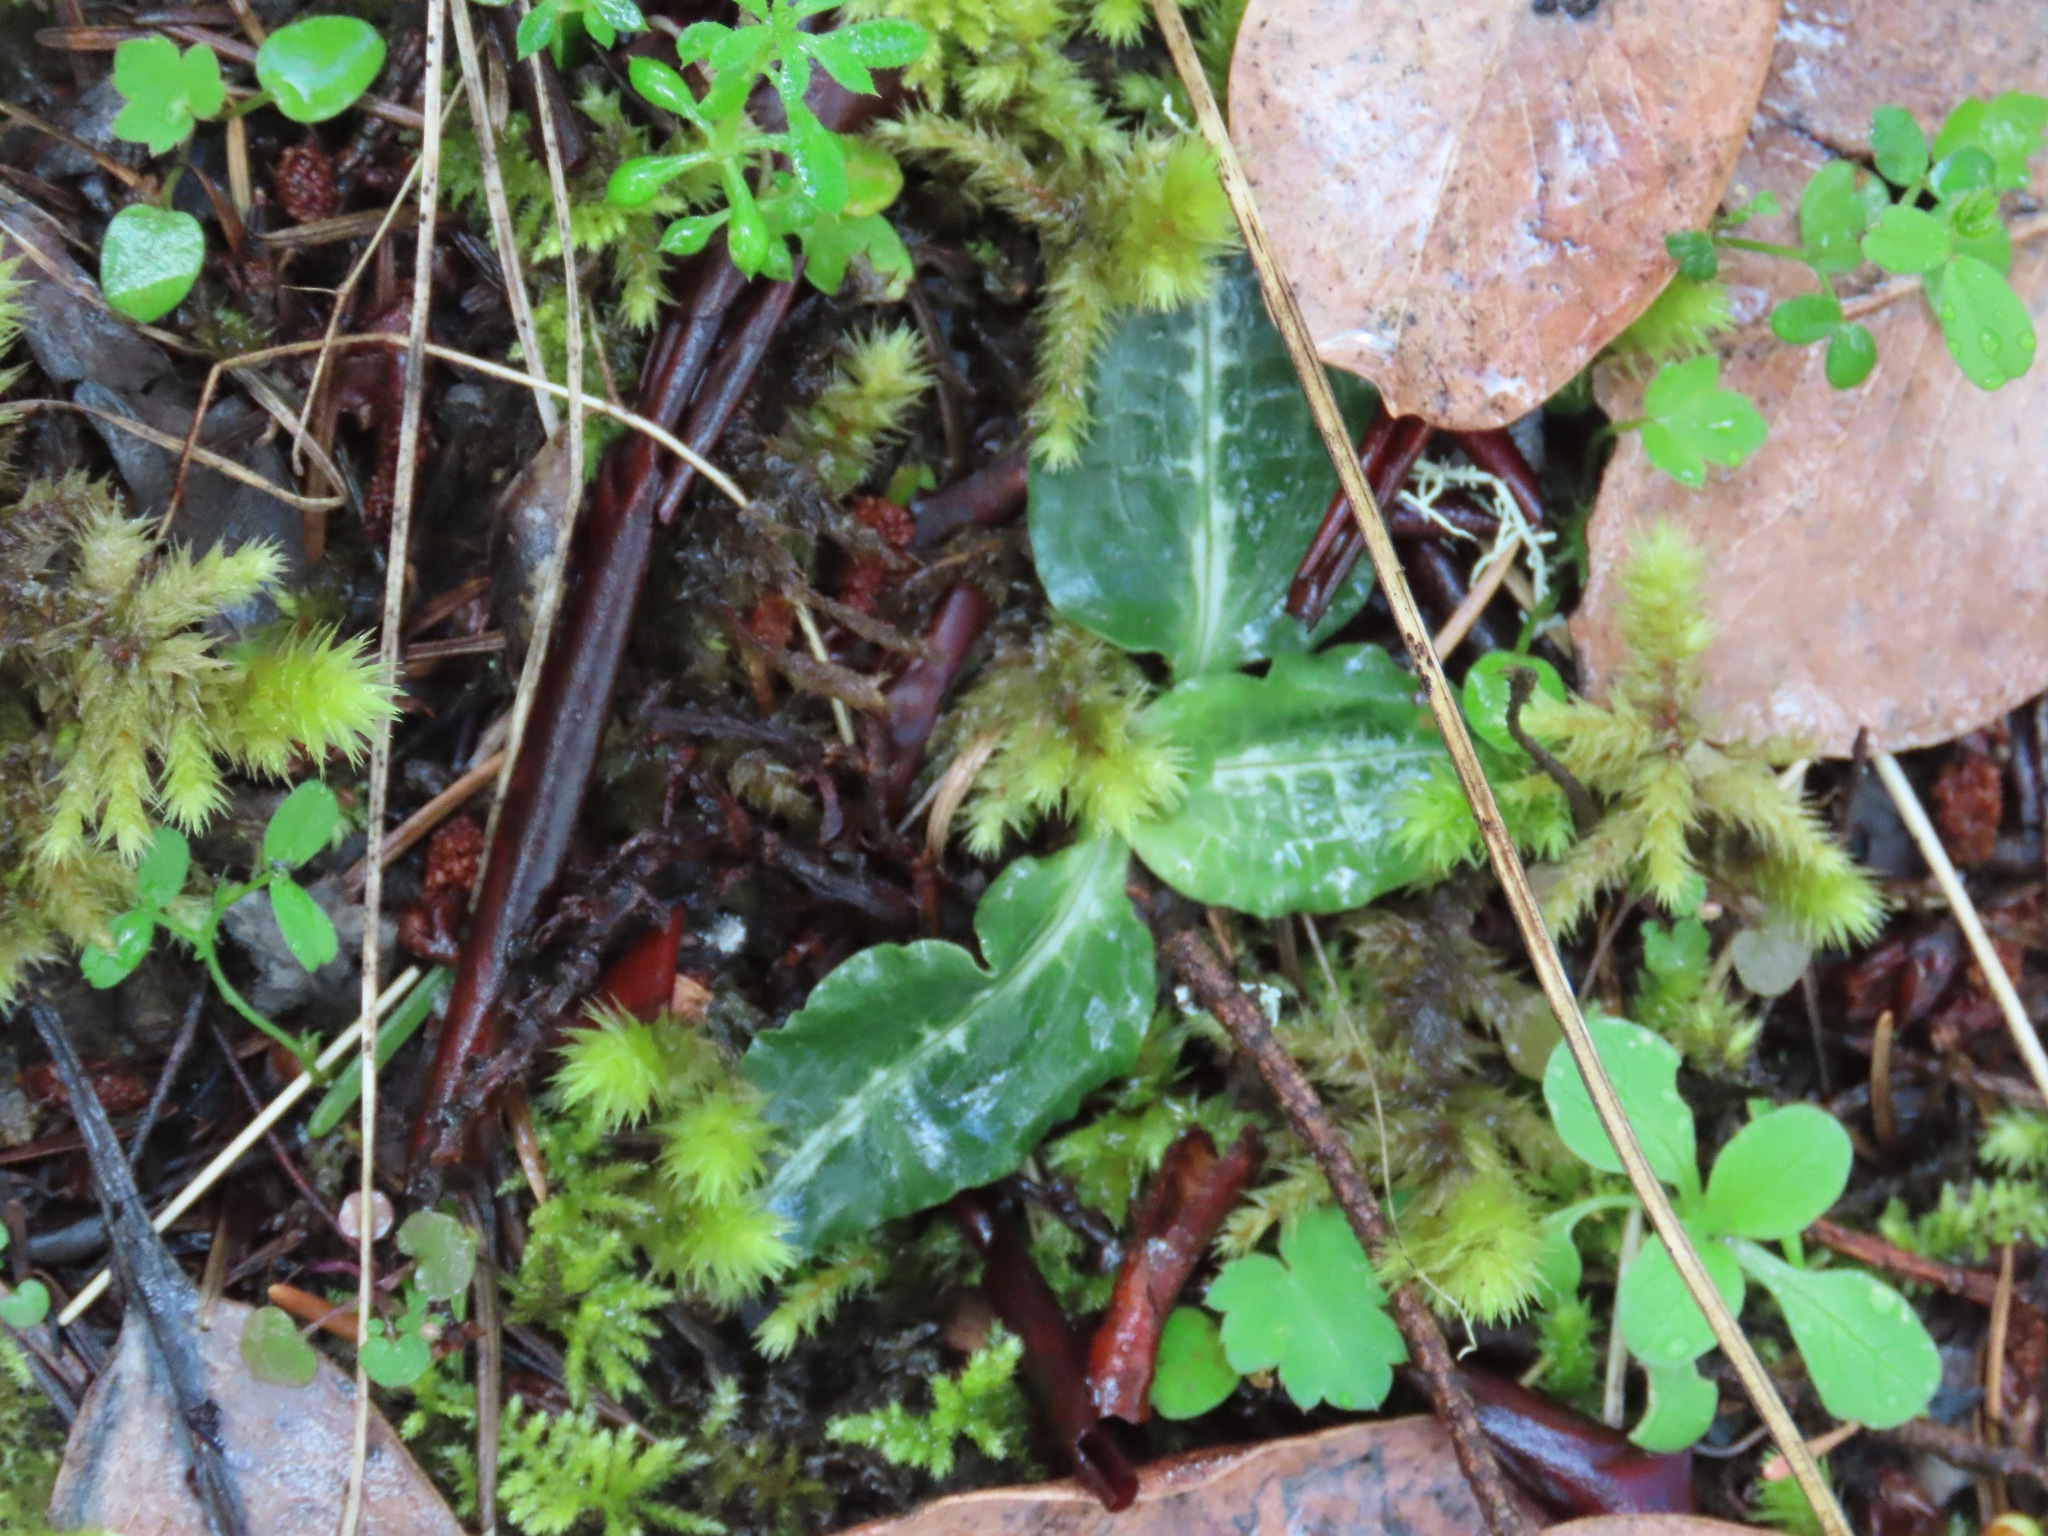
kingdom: Plantae
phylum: Tracheophyta
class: Liliopsida
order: Asparagales
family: Orchidaceae
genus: Goodyera
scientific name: Goodyera oblongifolia
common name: Giant rattlesnake-plantain
